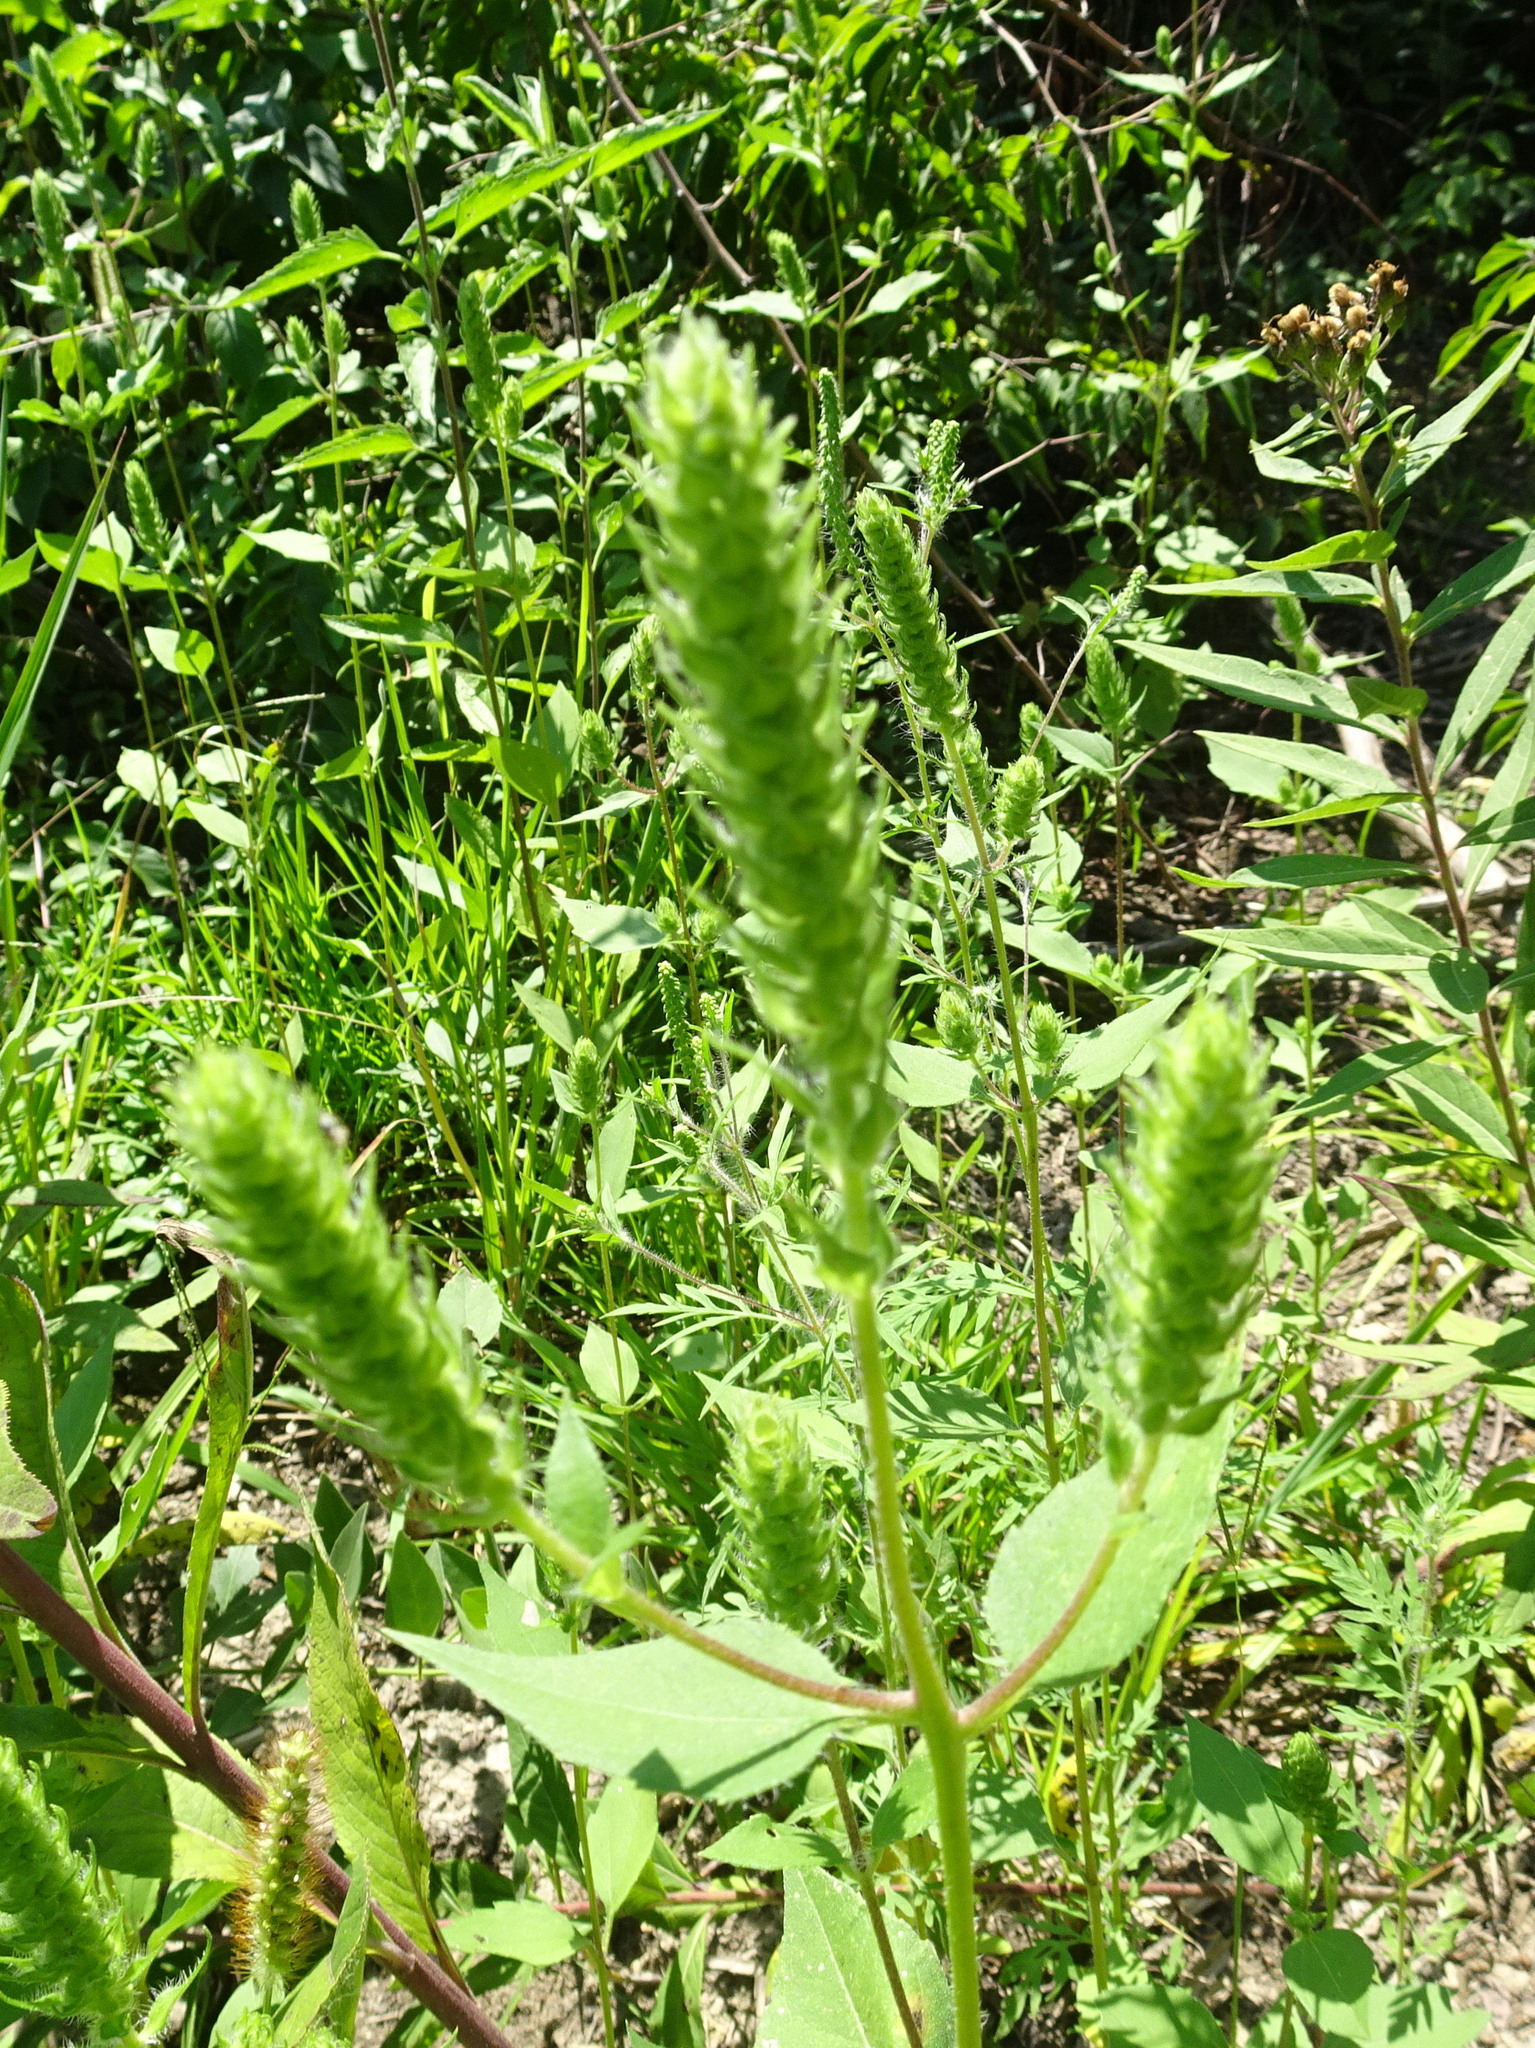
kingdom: Plantae
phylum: Tracheophyta
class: Magnoliopsida
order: Asterales
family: Asteraceae
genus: Iva
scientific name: Iva annua
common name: Marsh-elder
